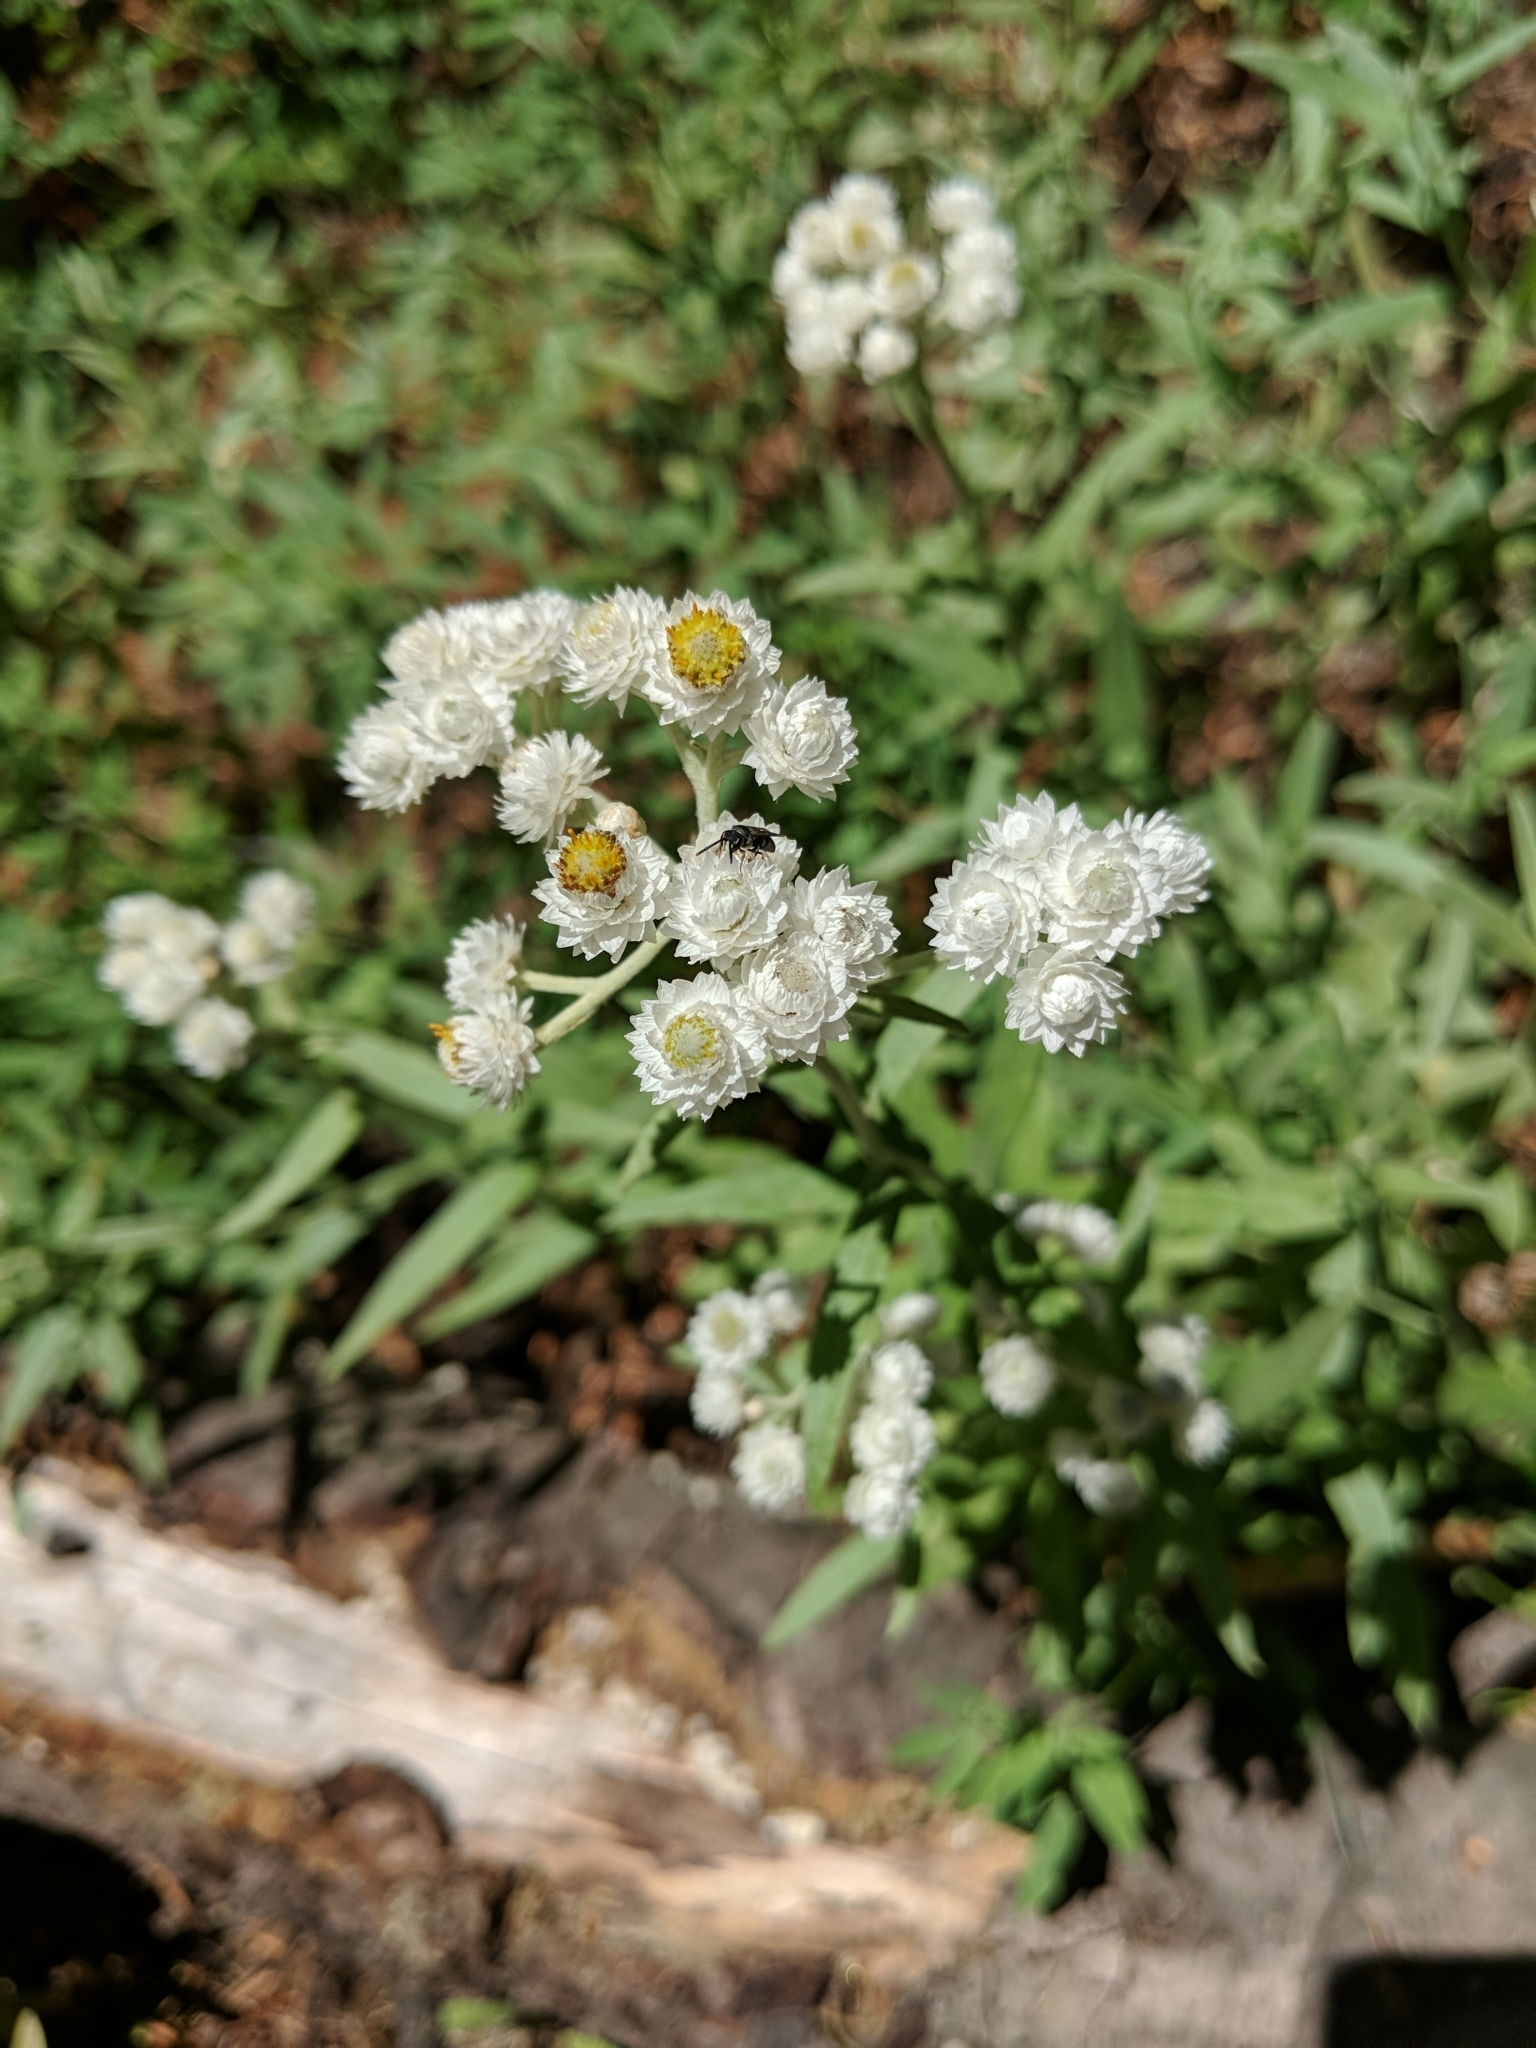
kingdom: Plantae
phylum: Tracheophyta
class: Magnoliopsida
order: Asterales
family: Asteraceae
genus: Anaphalis
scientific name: Anaphalis margaritacea
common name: Pearly everlasting
